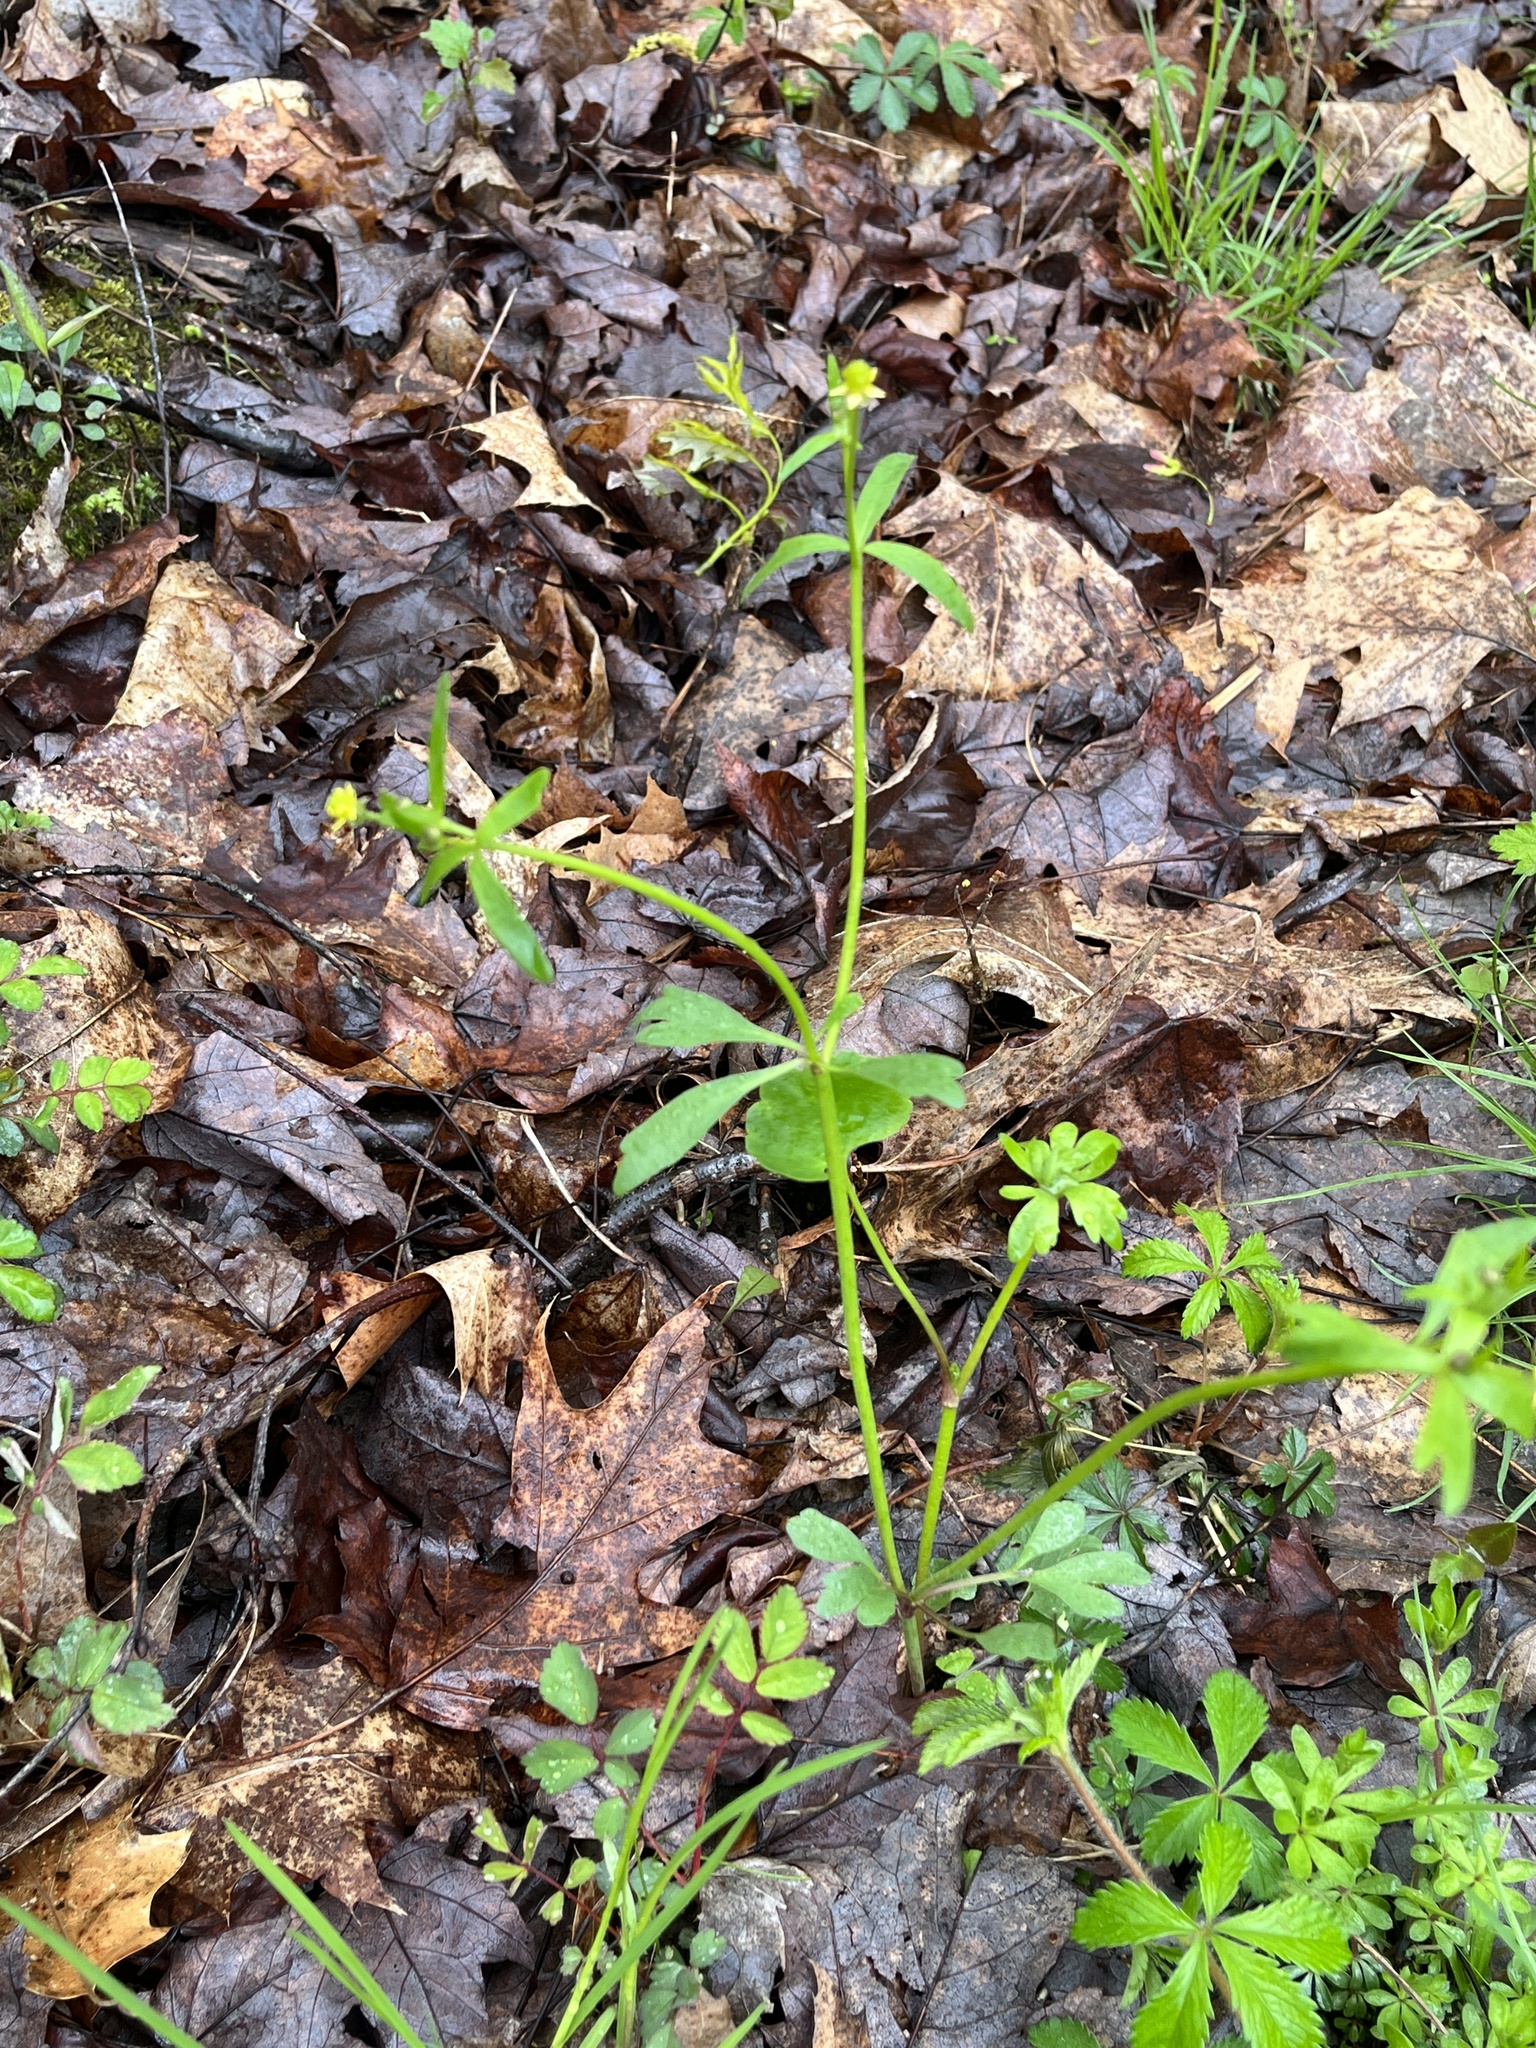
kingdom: Plantae
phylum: Tracheophyta
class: Magnoliopsida
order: Ranunculales
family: Ranunculaceae
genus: Ranunculus
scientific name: Ranunculus abortivus
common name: Early wood buttercup
